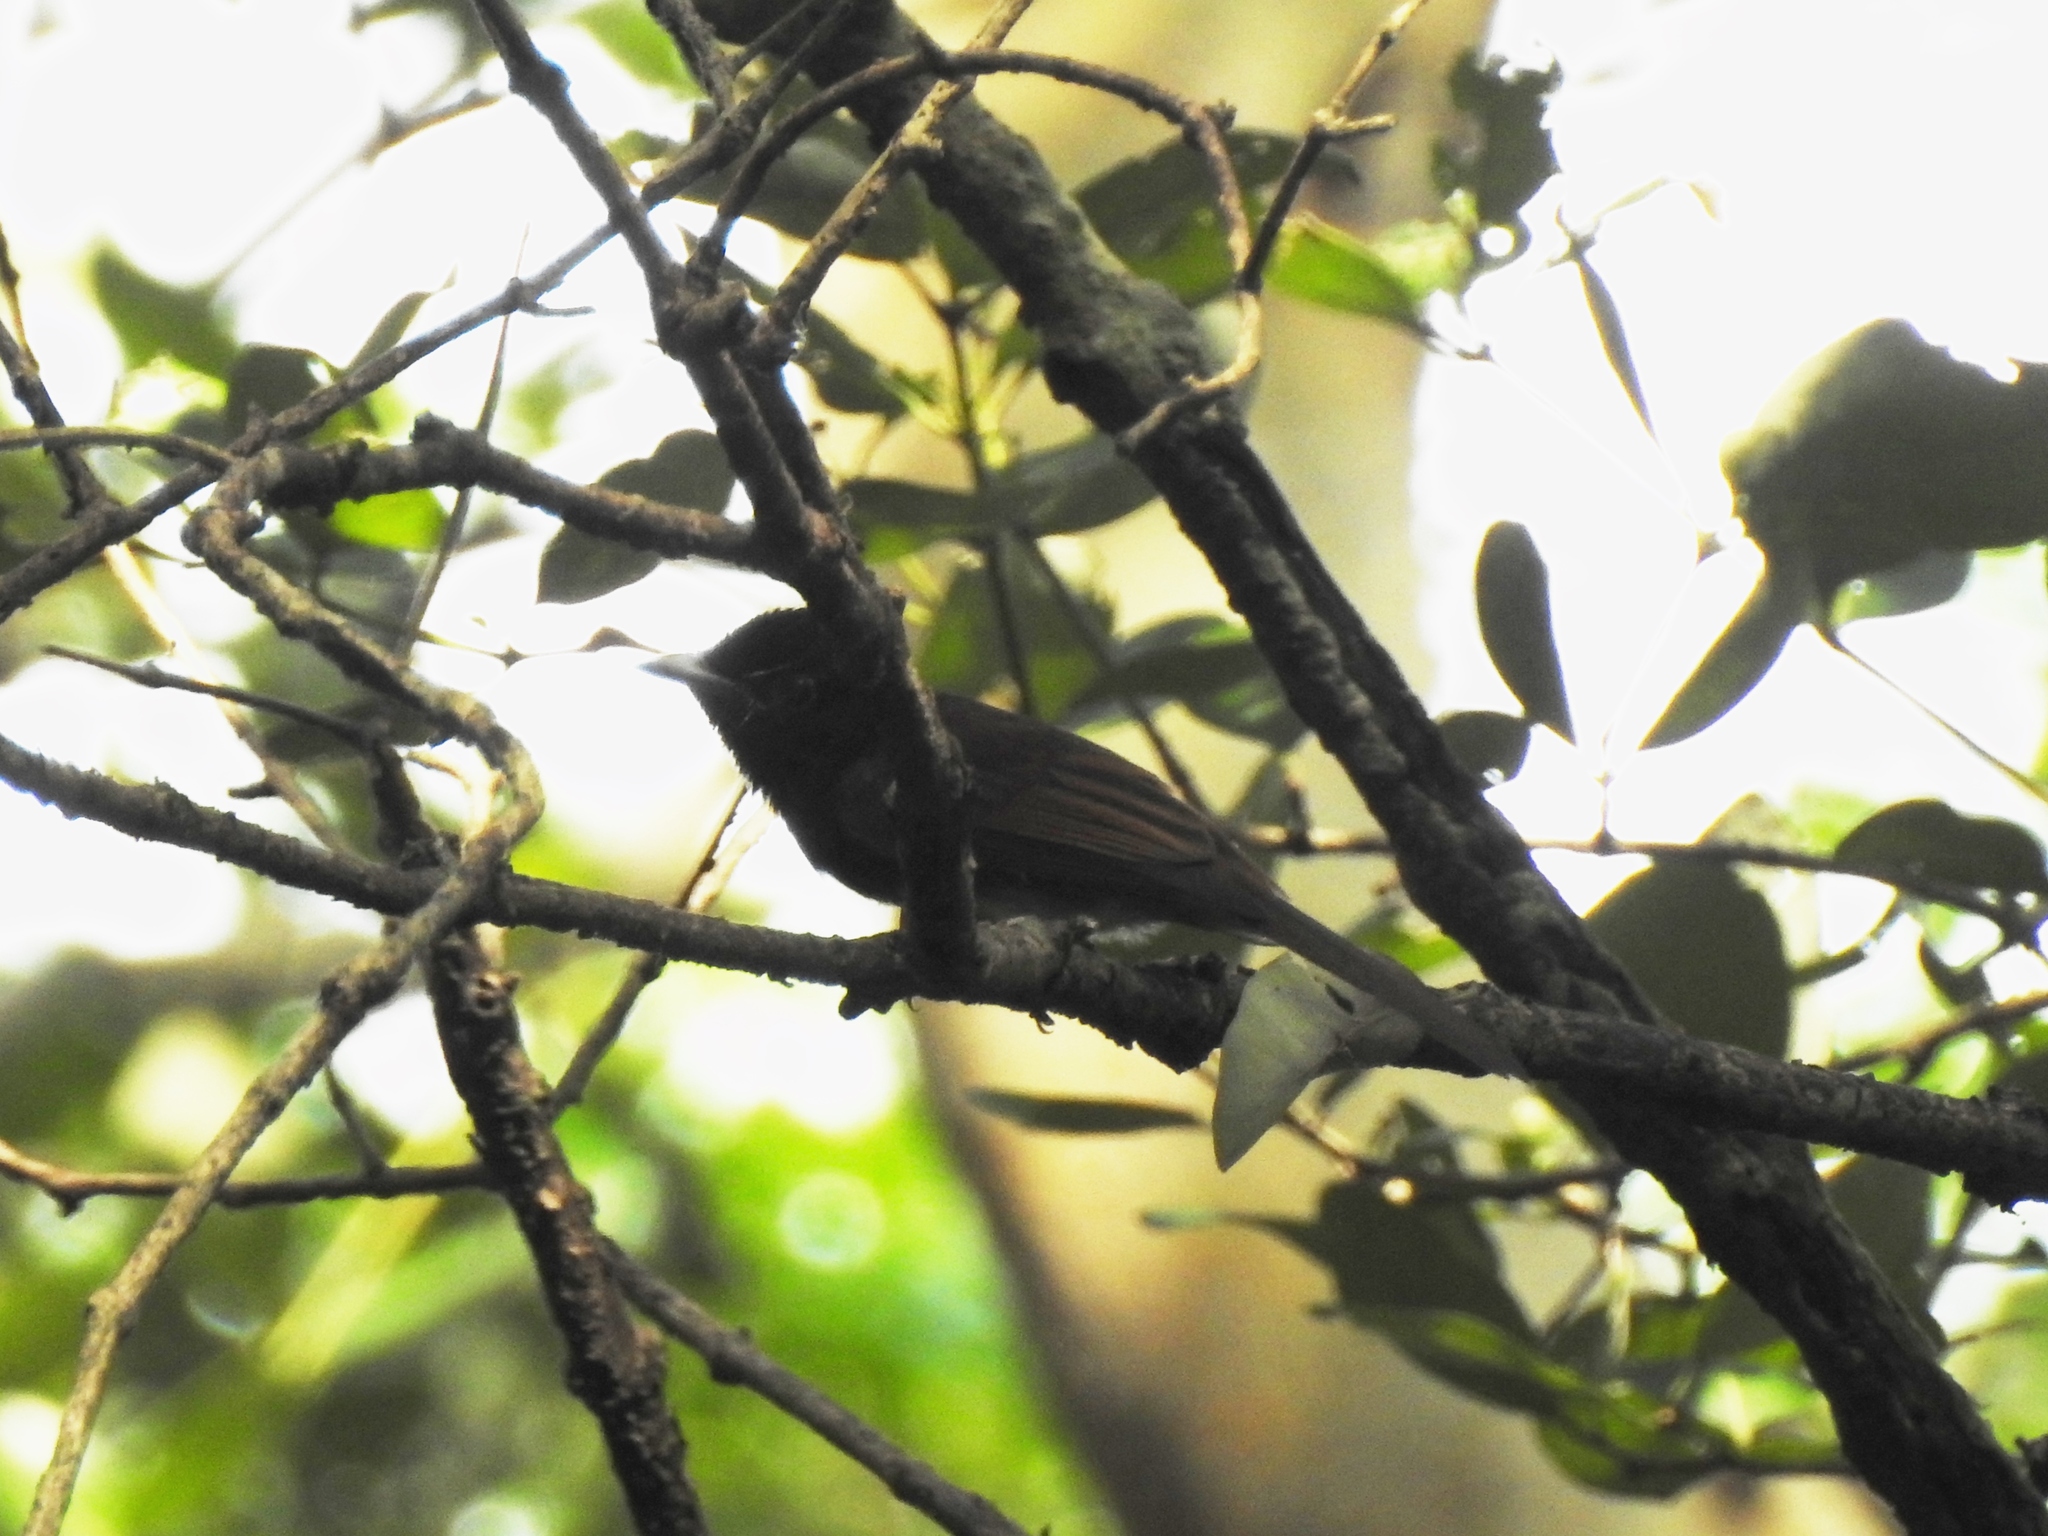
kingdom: Animalia
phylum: Chordata
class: Aves
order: Passeriformes
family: Monarchidae
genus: Terpsiphone
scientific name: Terpsiphone atrocaudata
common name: Japanese paradise flycatcher
